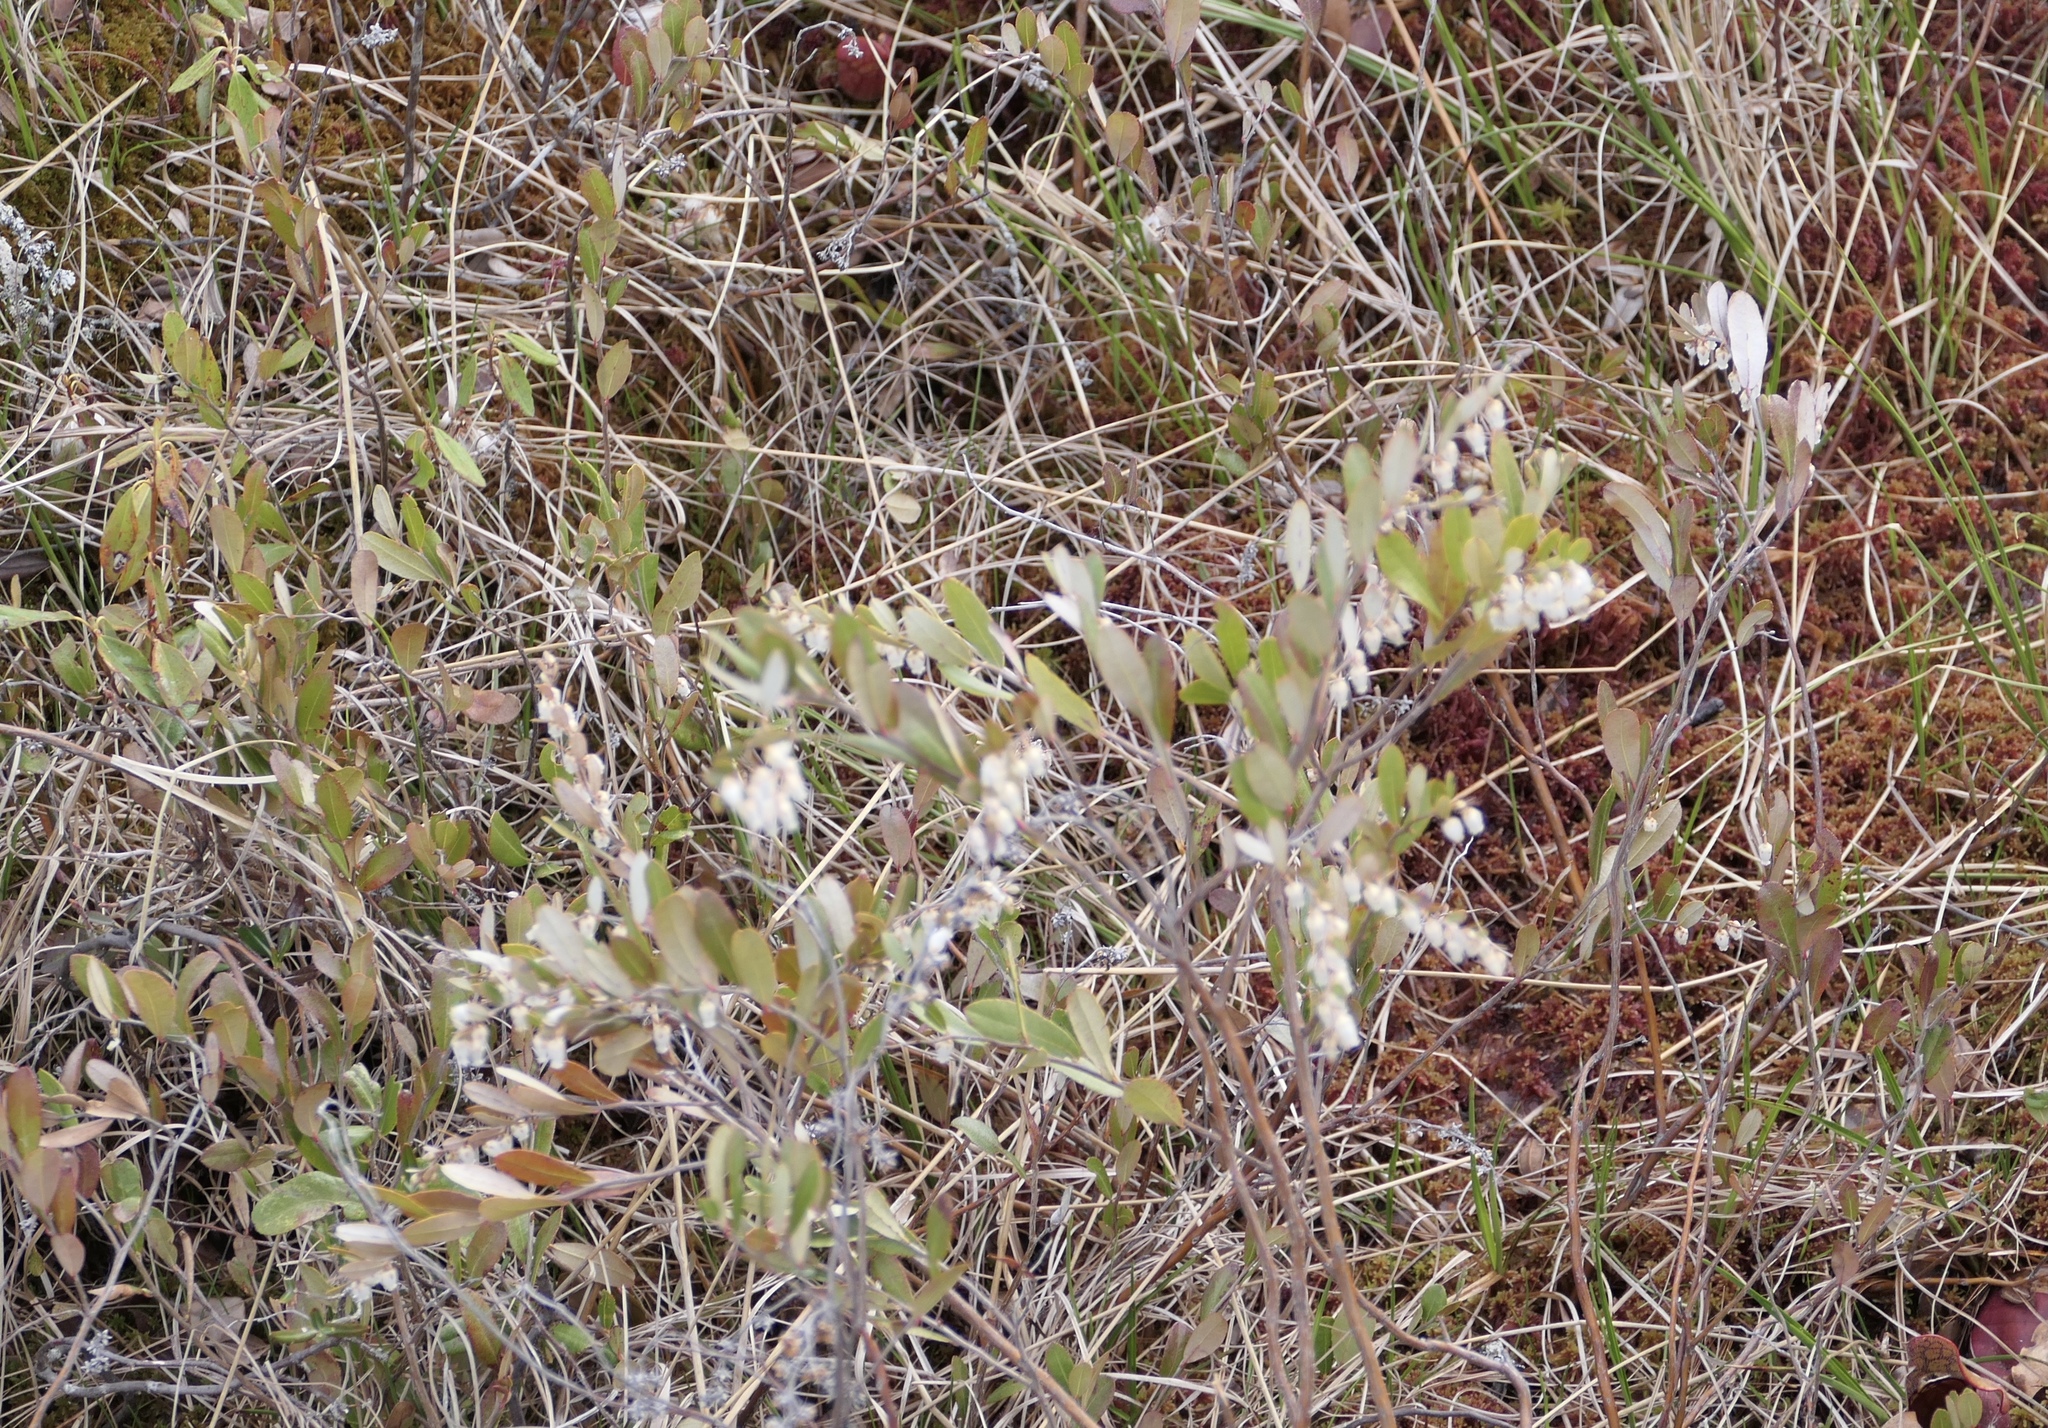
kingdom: Plantae
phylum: Tracheophyta
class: Magnoliopsida
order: Ericales
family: Ericaceae
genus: Chamaedaphne
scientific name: Chamaedaphne calyculata
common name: Leatherleaf
